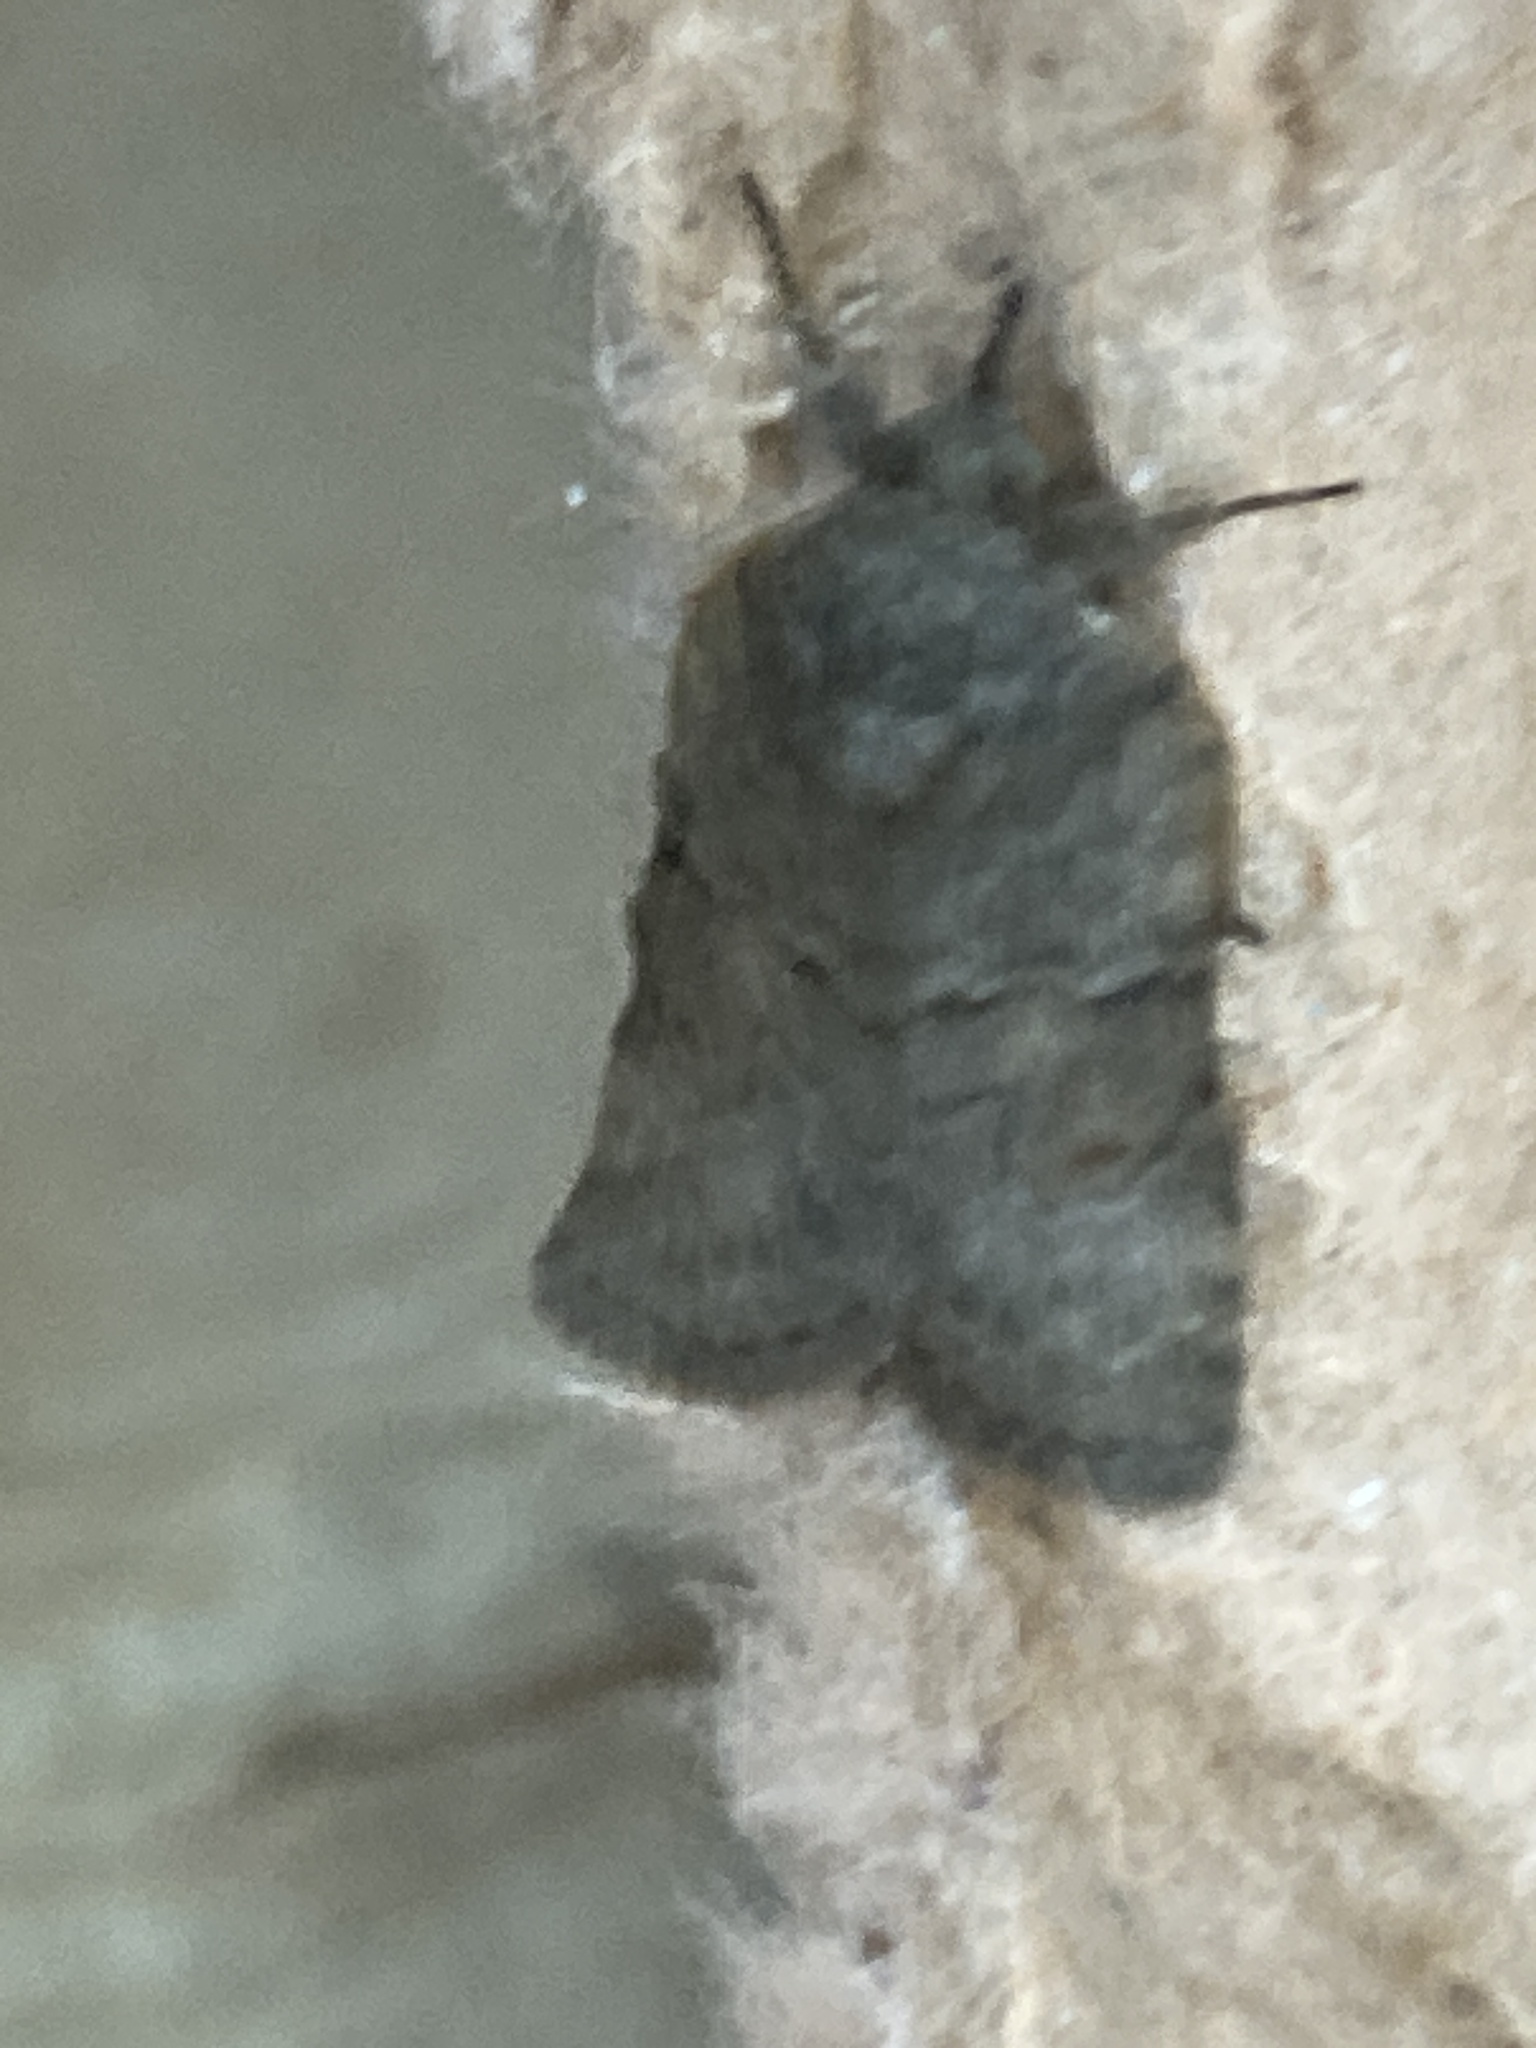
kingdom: Animalia
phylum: Arthropoda
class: Insecta
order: Lepidoptera
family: Nolidae
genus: Nycteola
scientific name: Nycteola revayana
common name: Oak nycteoline
